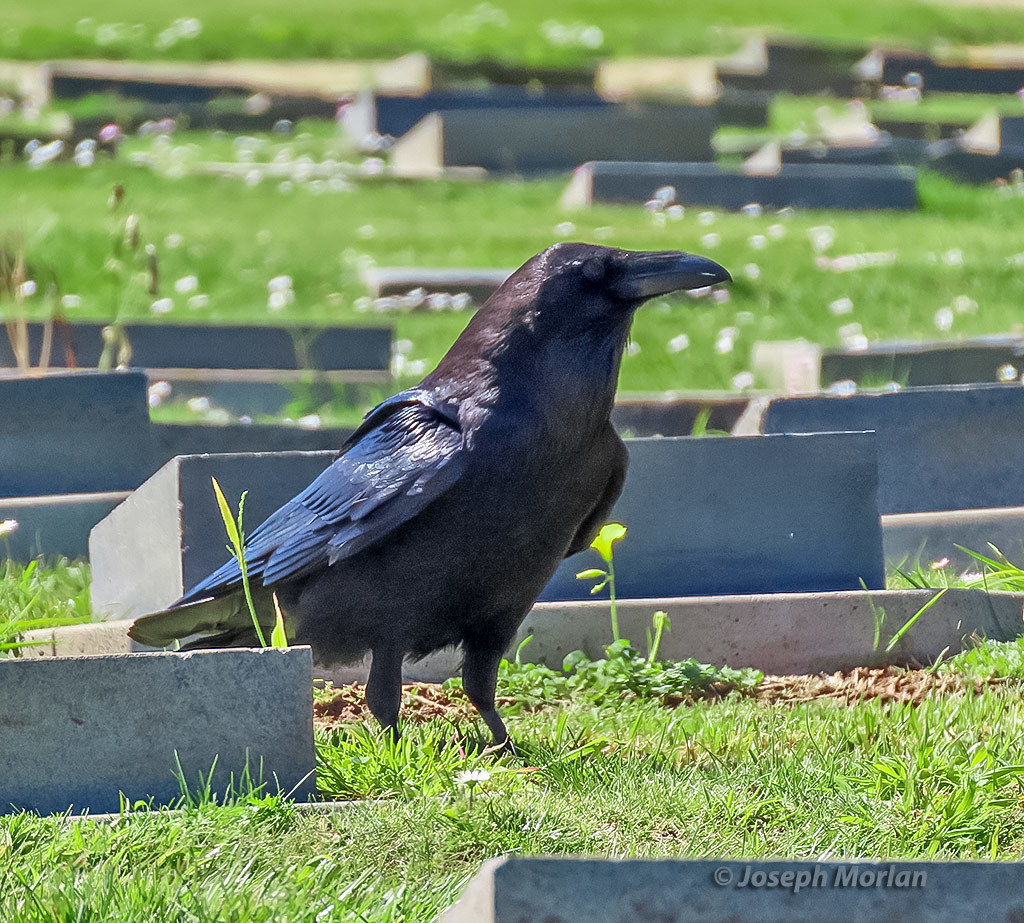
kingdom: Animalia
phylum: Chordata
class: Aves
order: Passeriformes
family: Corvidae
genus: Corvus
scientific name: Corvus corax
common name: Common raven
